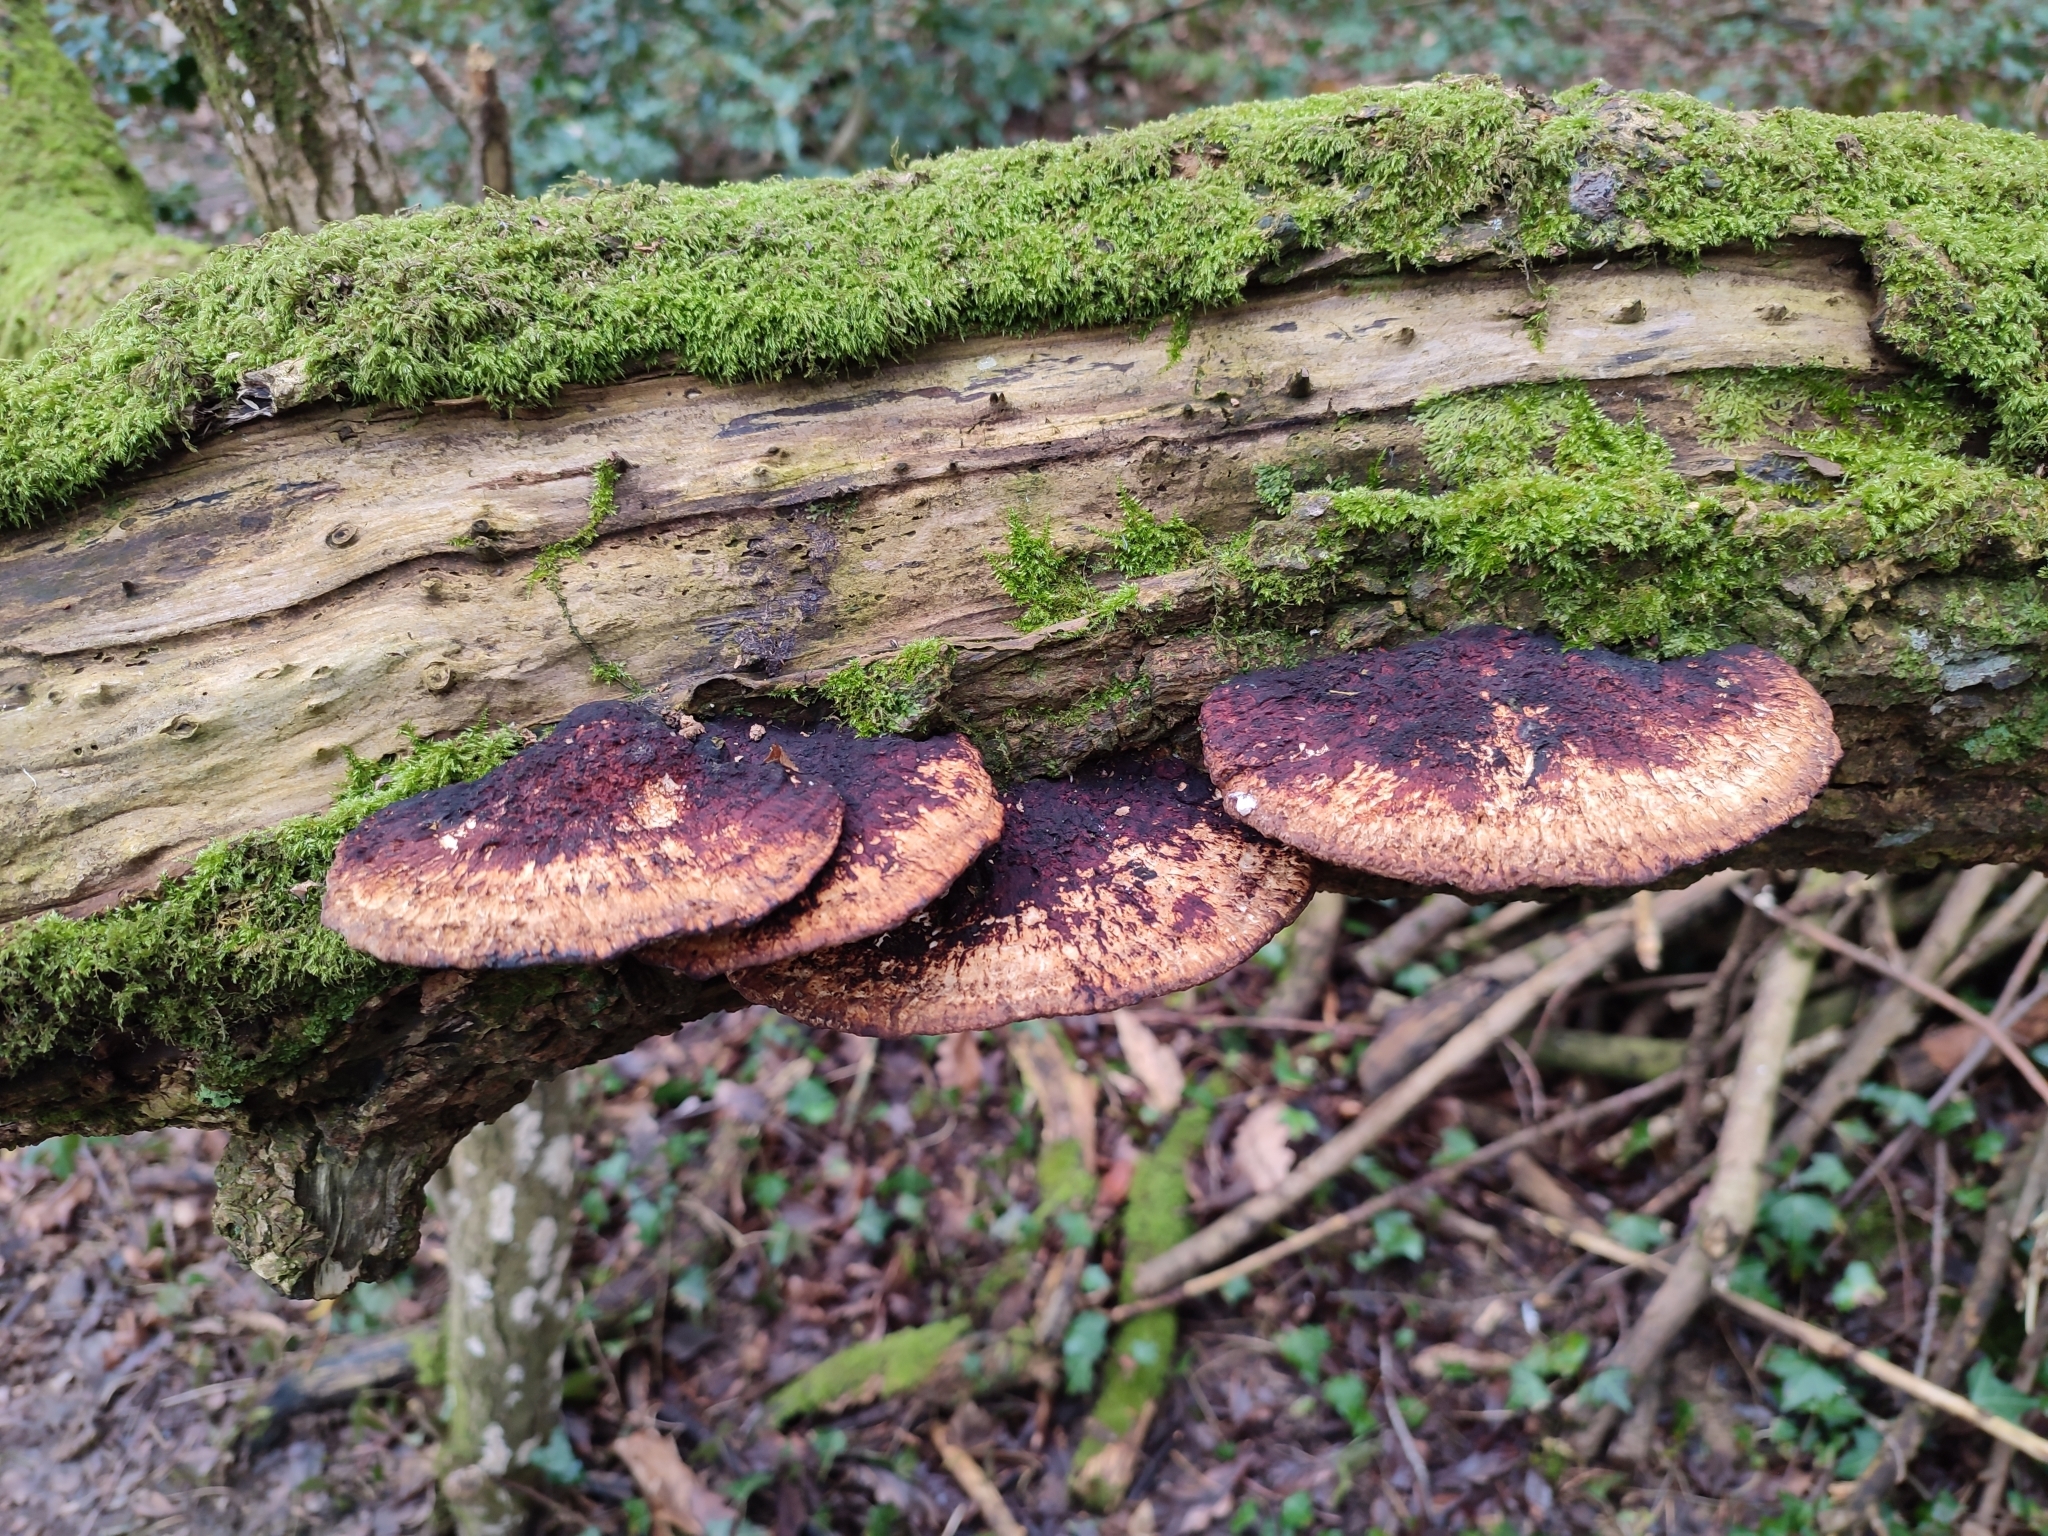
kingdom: Fungi
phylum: Basidiomycota
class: Agaricomycetes
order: Polyporales
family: Polyporaceae
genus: Daedaleopsis
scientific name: Daedaleopsis confragosa
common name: Blushing bracket
